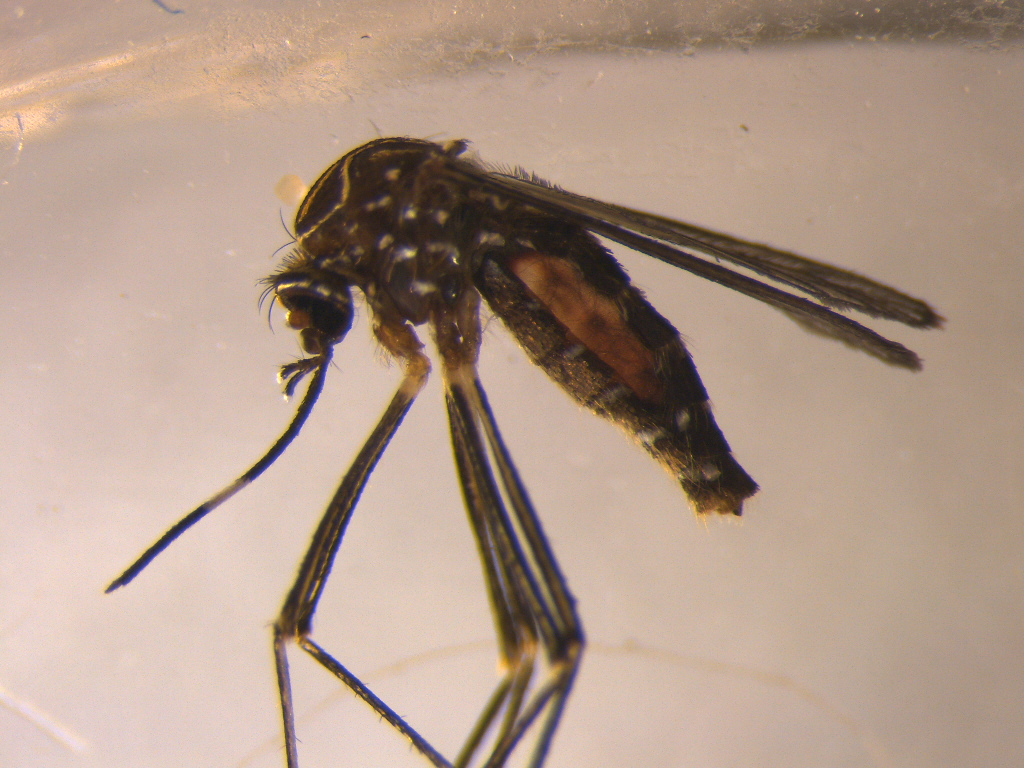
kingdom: Animalia
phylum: Arthropoda
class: Insecta
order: Diptera
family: Culicidae
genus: Aedes
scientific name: Aedes notoscriptus
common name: Australian backyard mosquito
